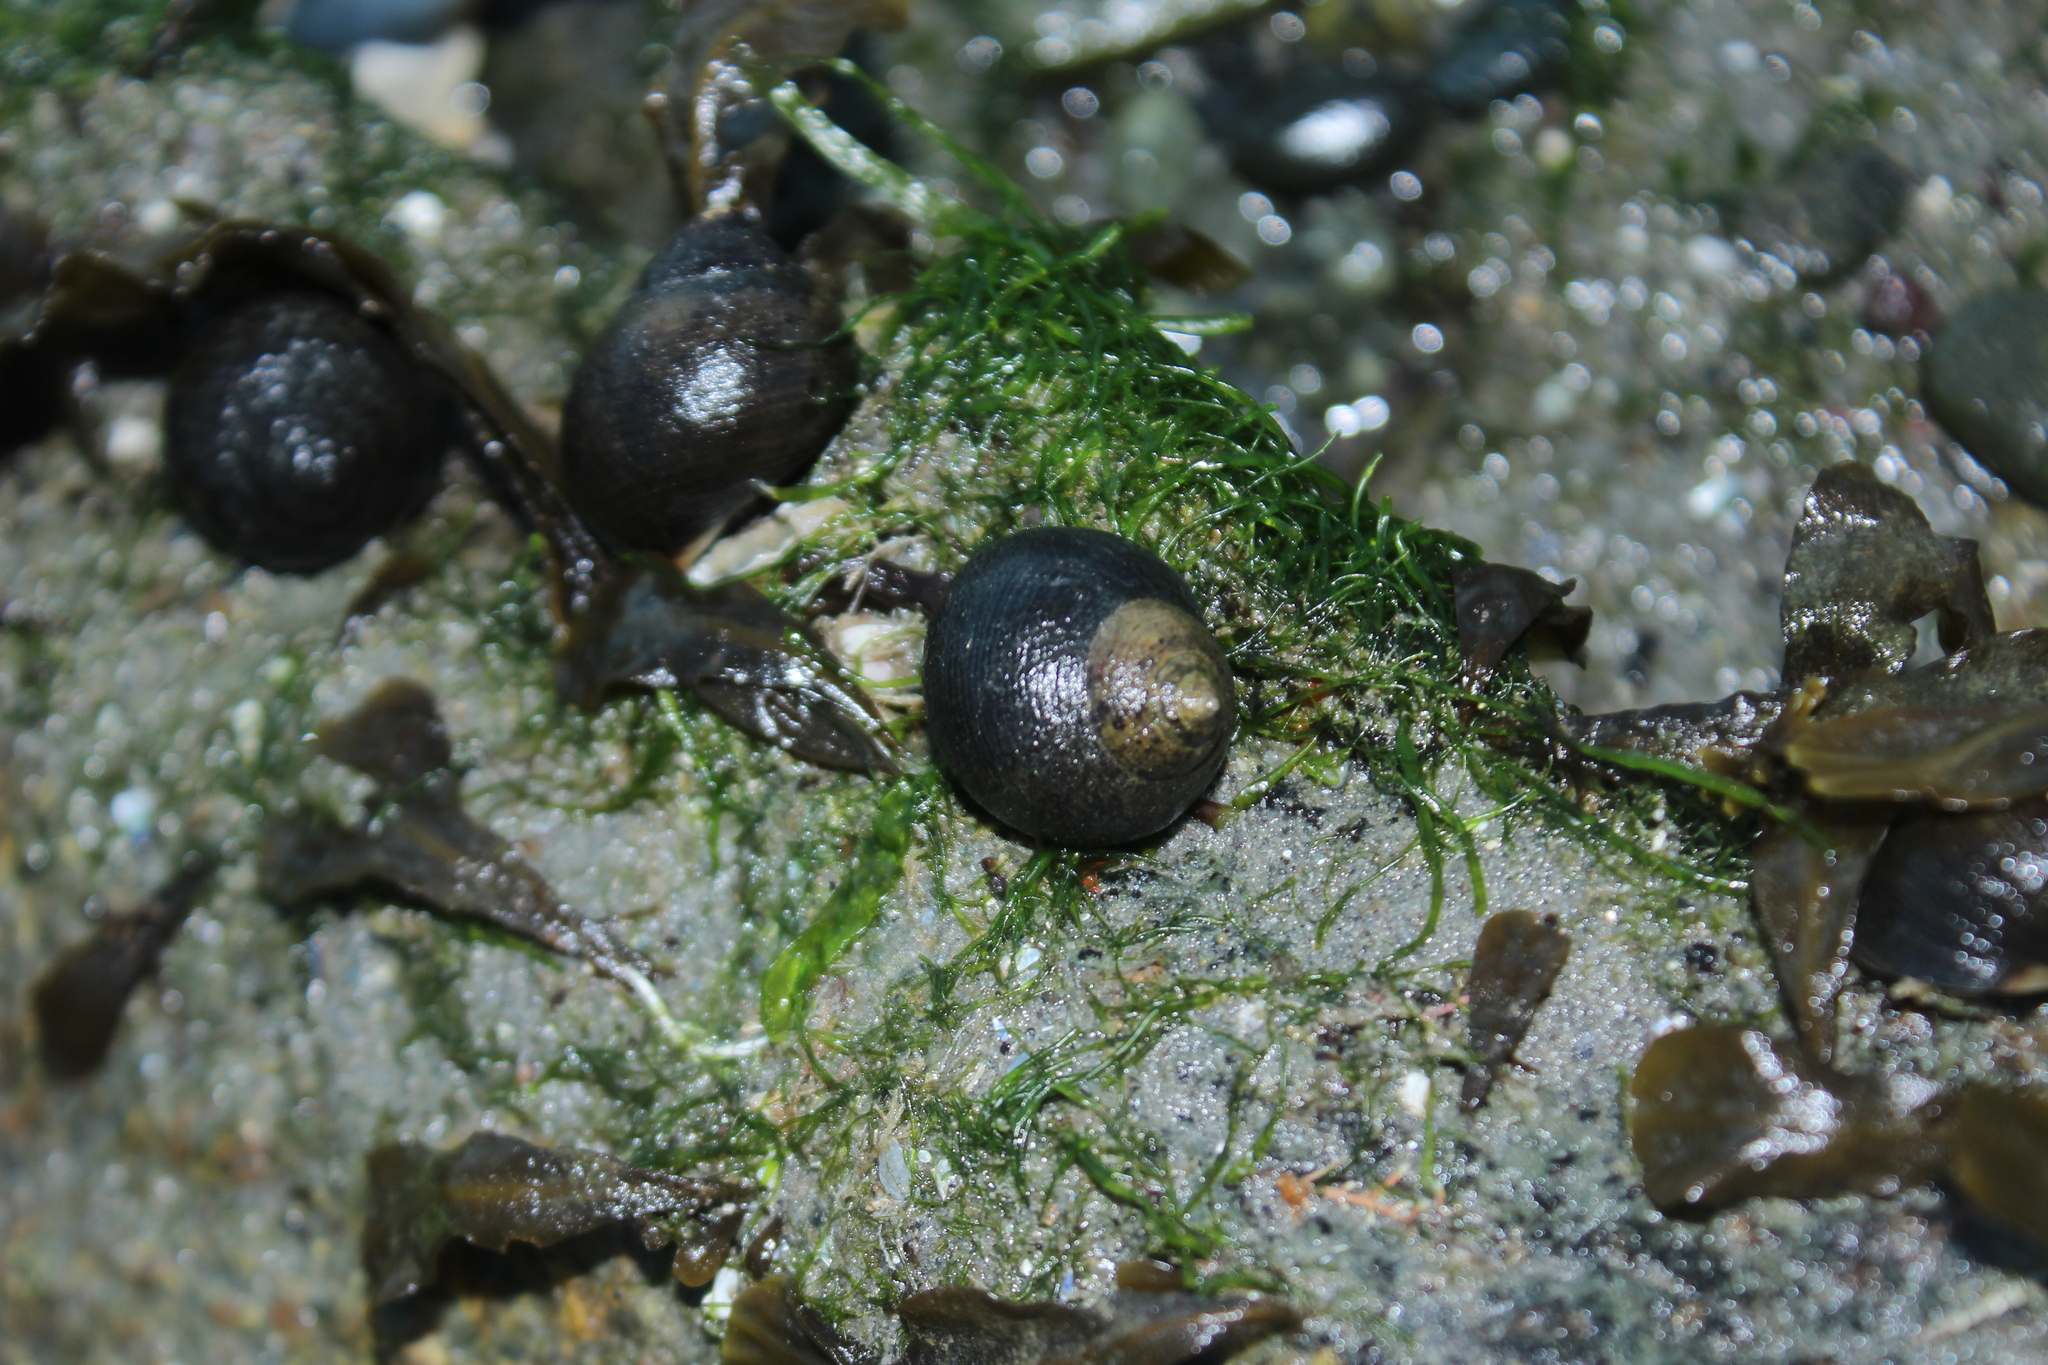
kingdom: Animalia
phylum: Mollusca
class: Gastropoda
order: Littorinimorpha
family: Littorinidae
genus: Littorina
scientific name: Littorina littorea
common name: Common periwinkle
